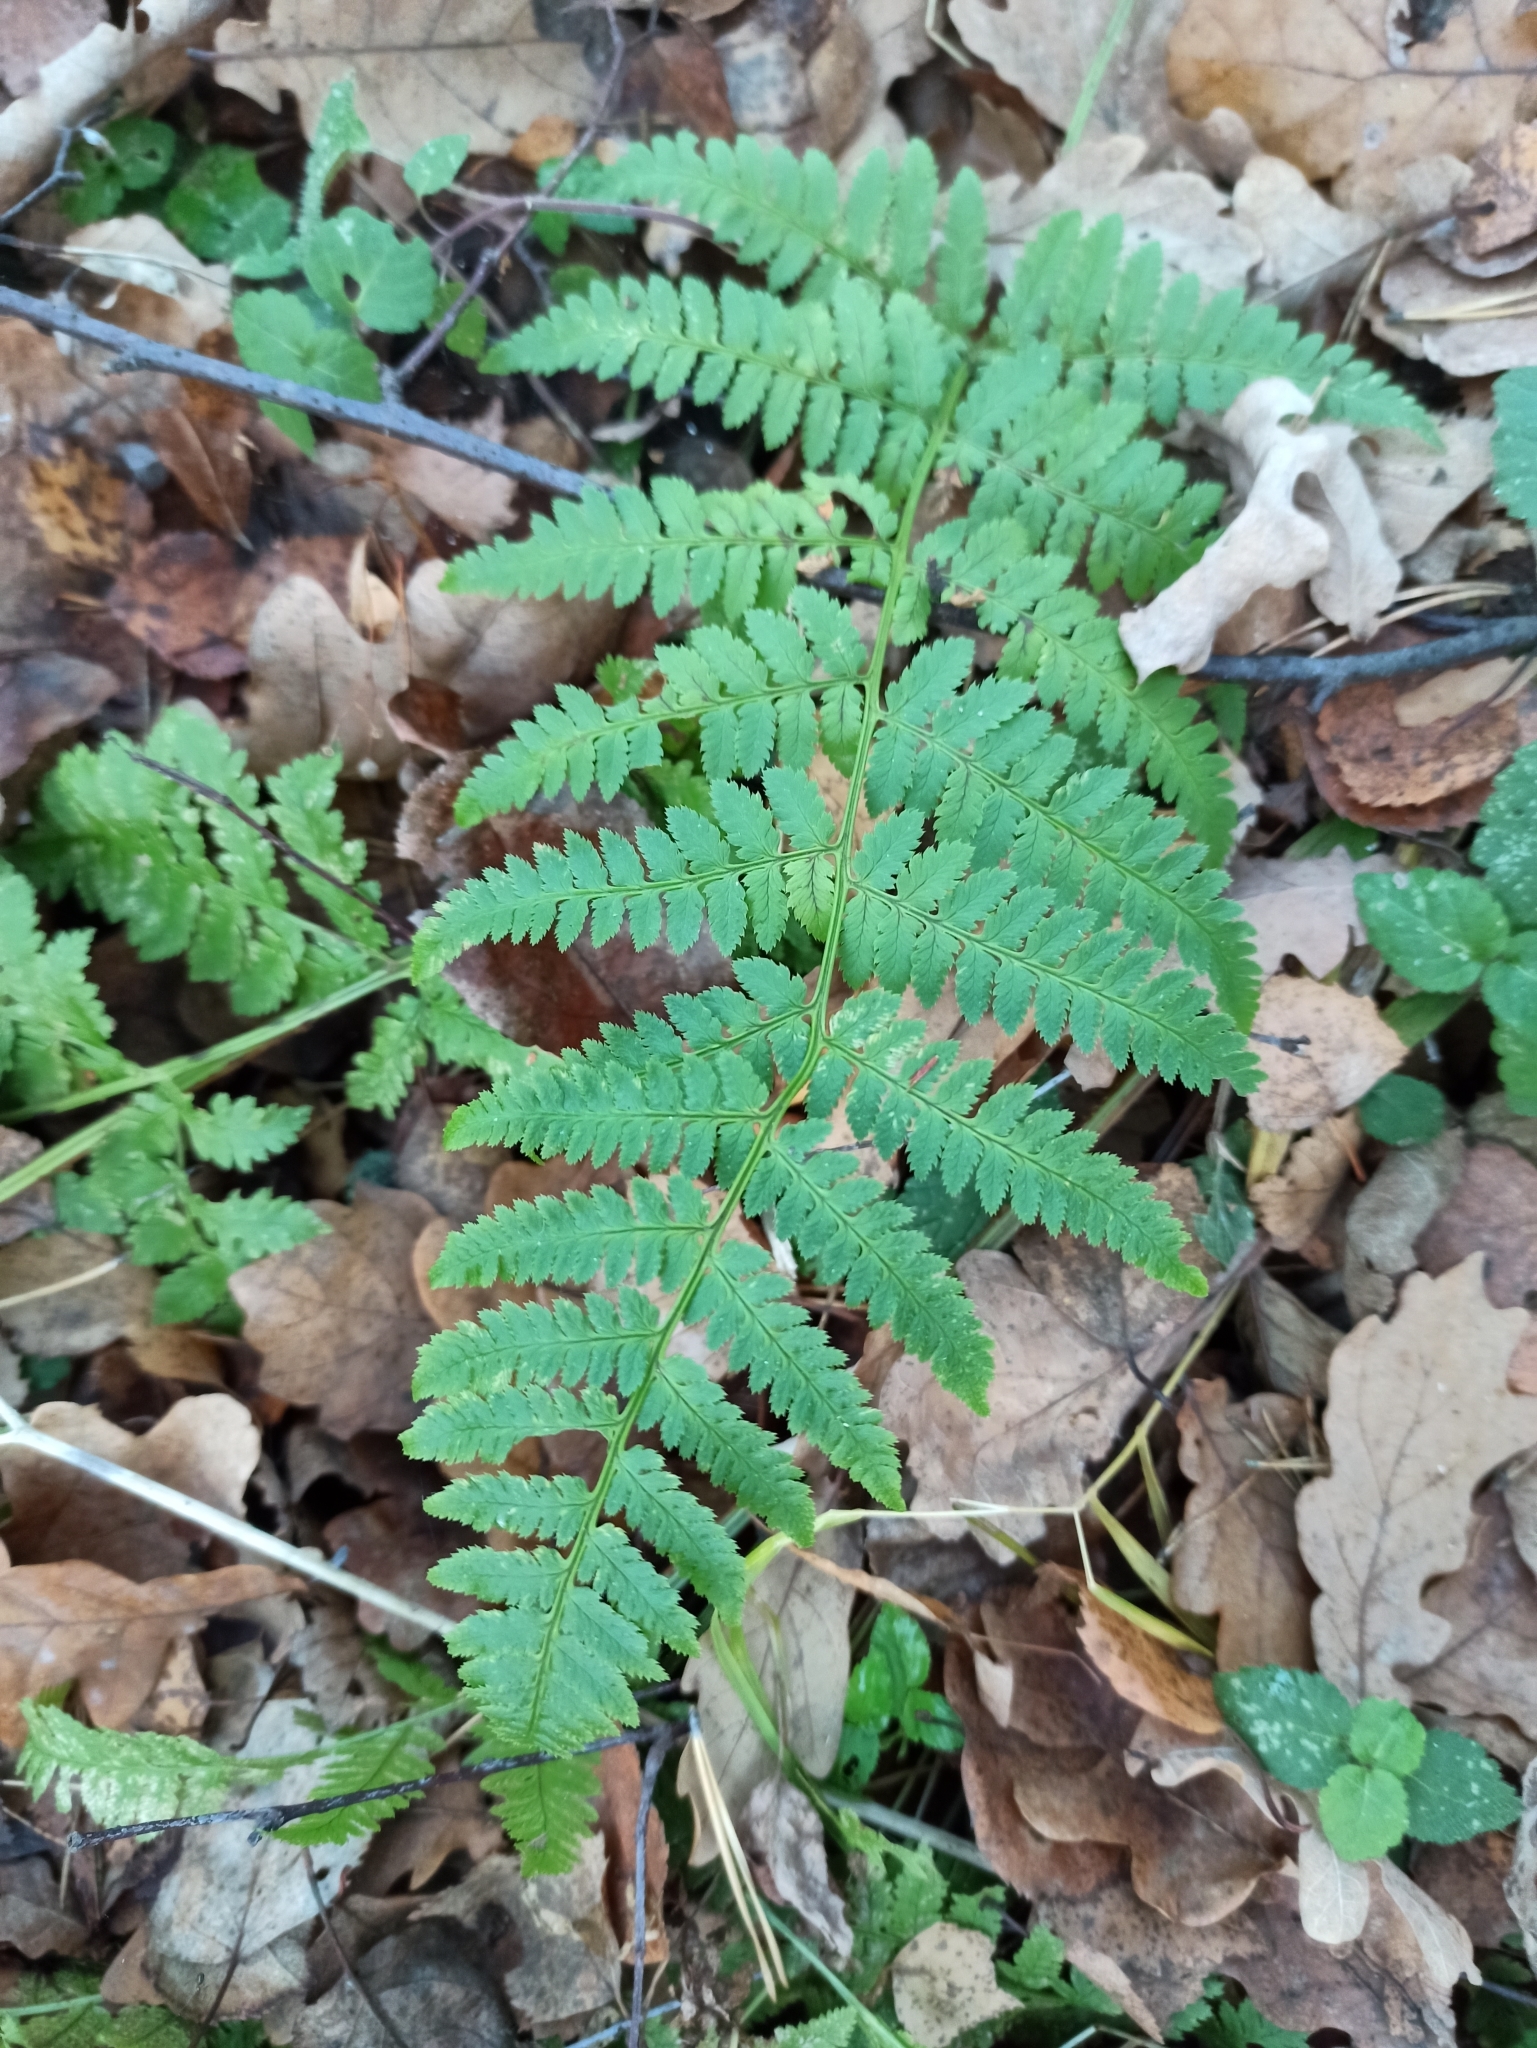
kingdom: Plantae
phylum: Tracheophyta
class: Polypodiopsida
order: Polypodiales
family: Dryopteridaceae
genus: Dryopteris
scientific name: Dryopteris carthusiana
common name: Narrow buckler-fern
